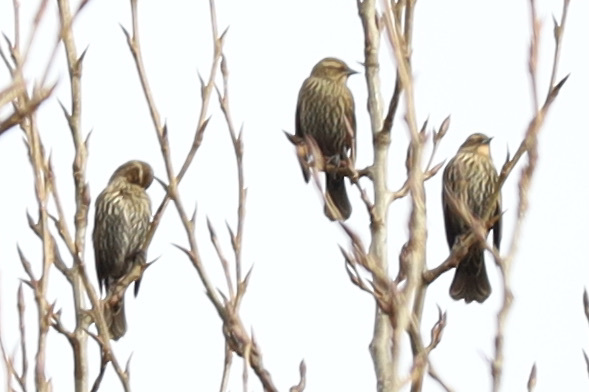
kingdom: Animalia
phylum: Chordata
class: Aves
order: Passeriformes
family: Icteridae
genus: Agelaius
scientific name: Agelaius phoeniceus
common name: Red-winged blackbird
